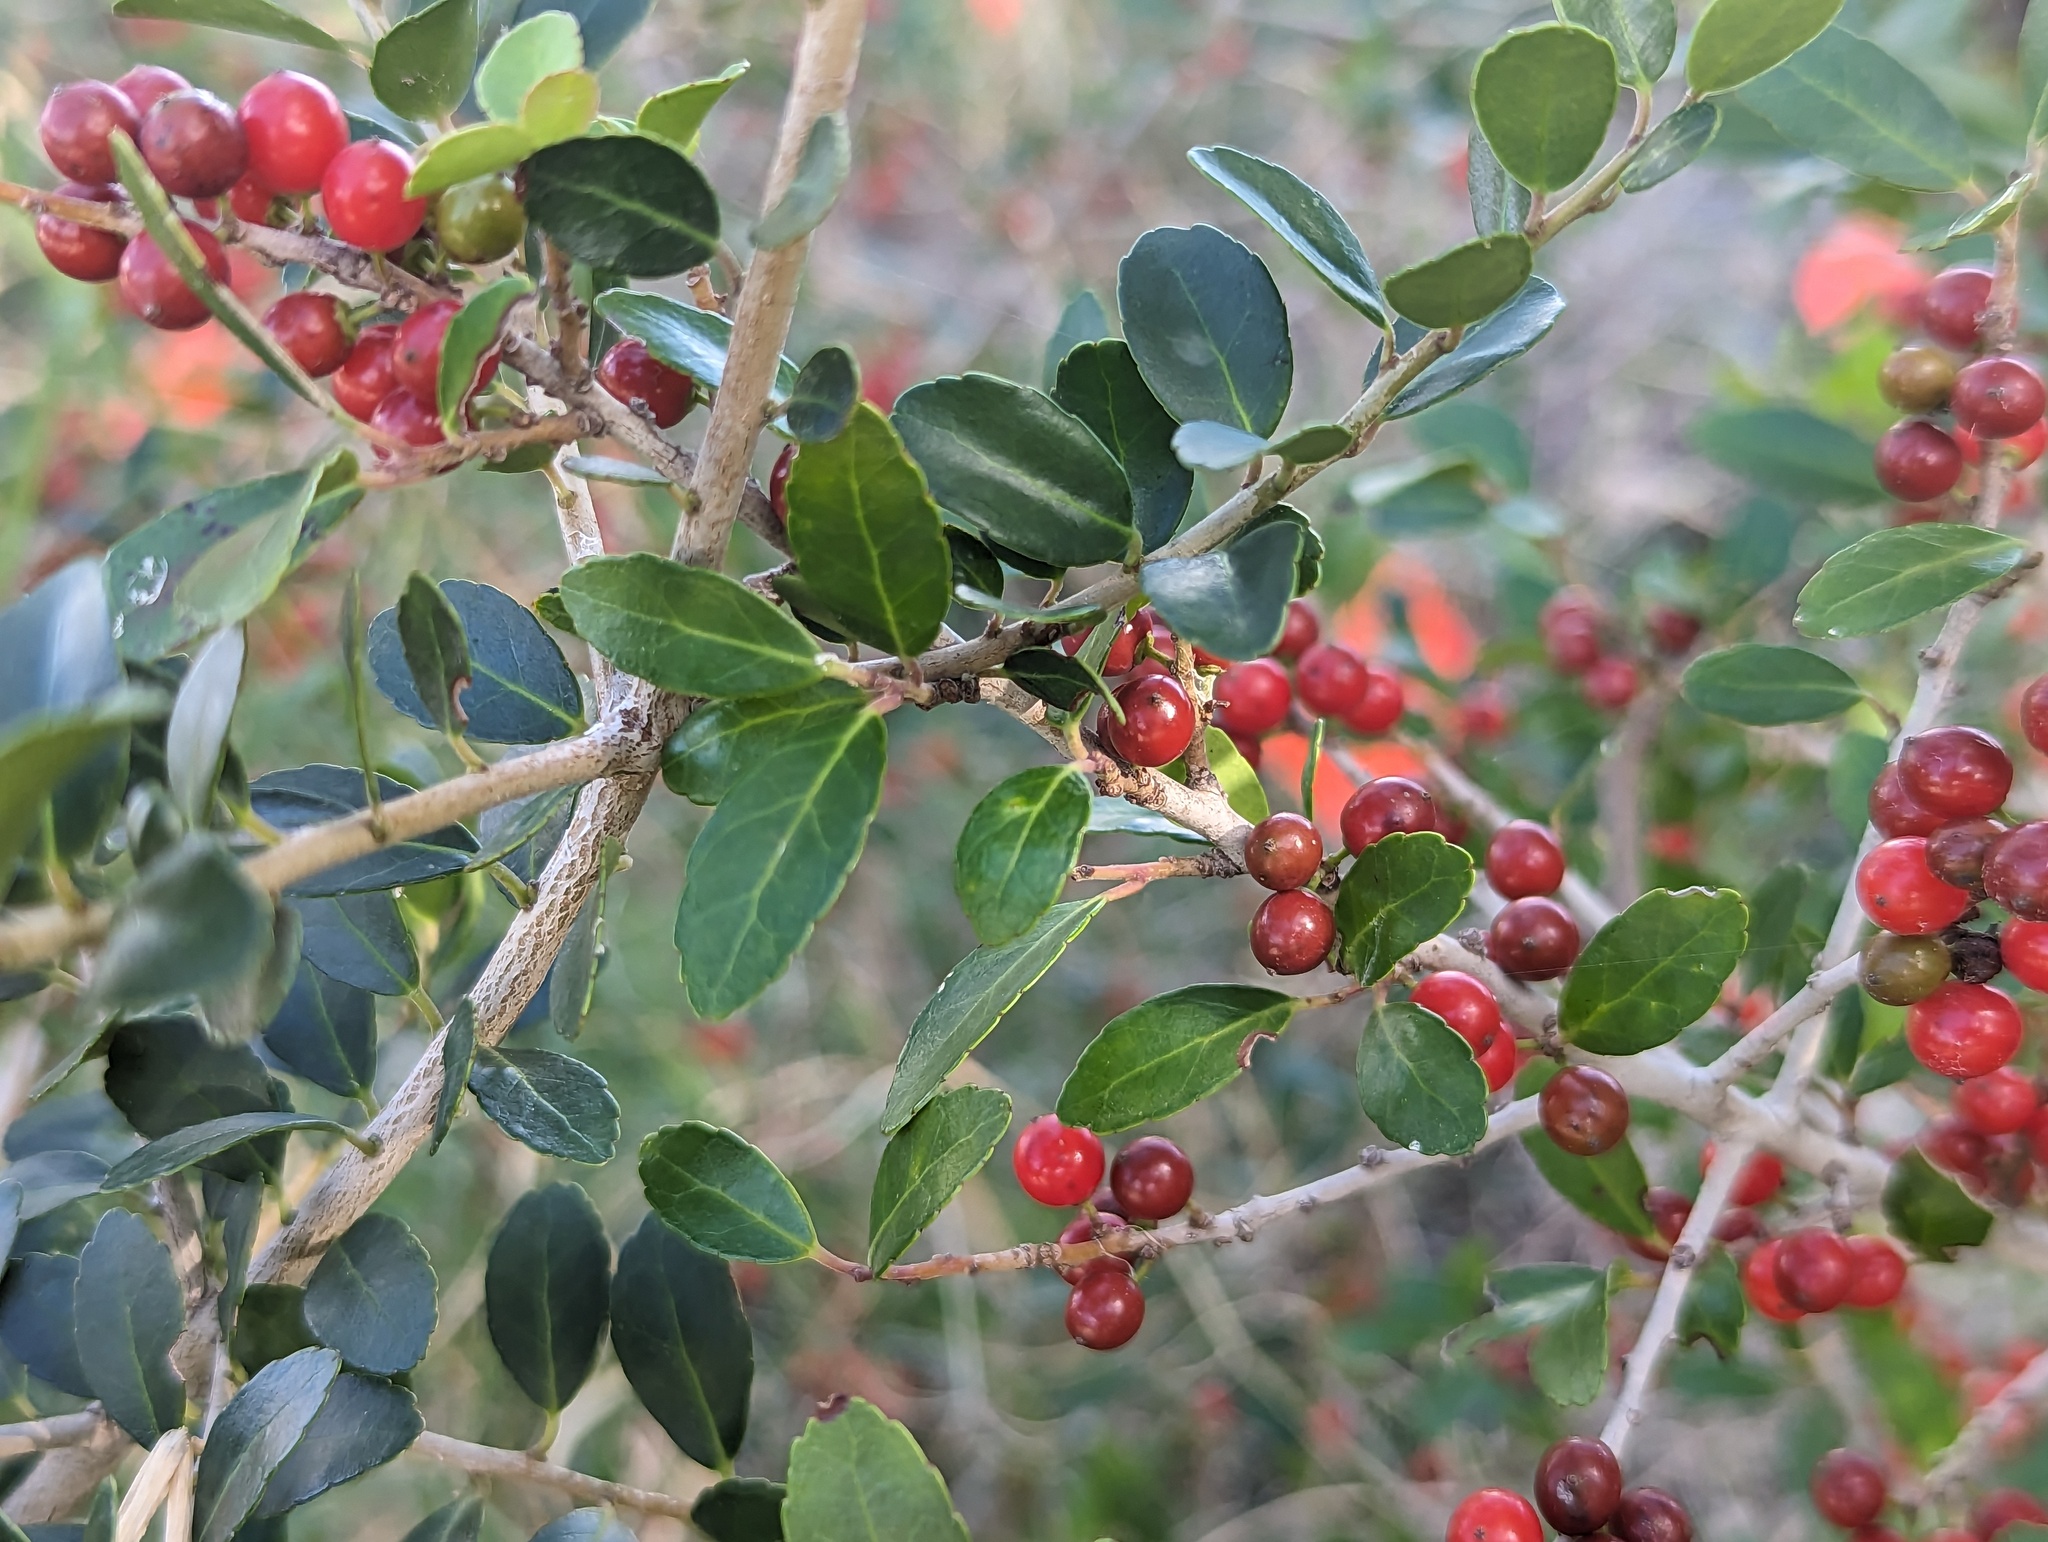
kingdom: Plantae
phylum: Tracheophyta
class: Magnoliopsida
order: Aquifoliales
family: Aquifoliaceae
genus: Ilex
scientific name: Ilex vomitoria
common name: Yaupon holly
